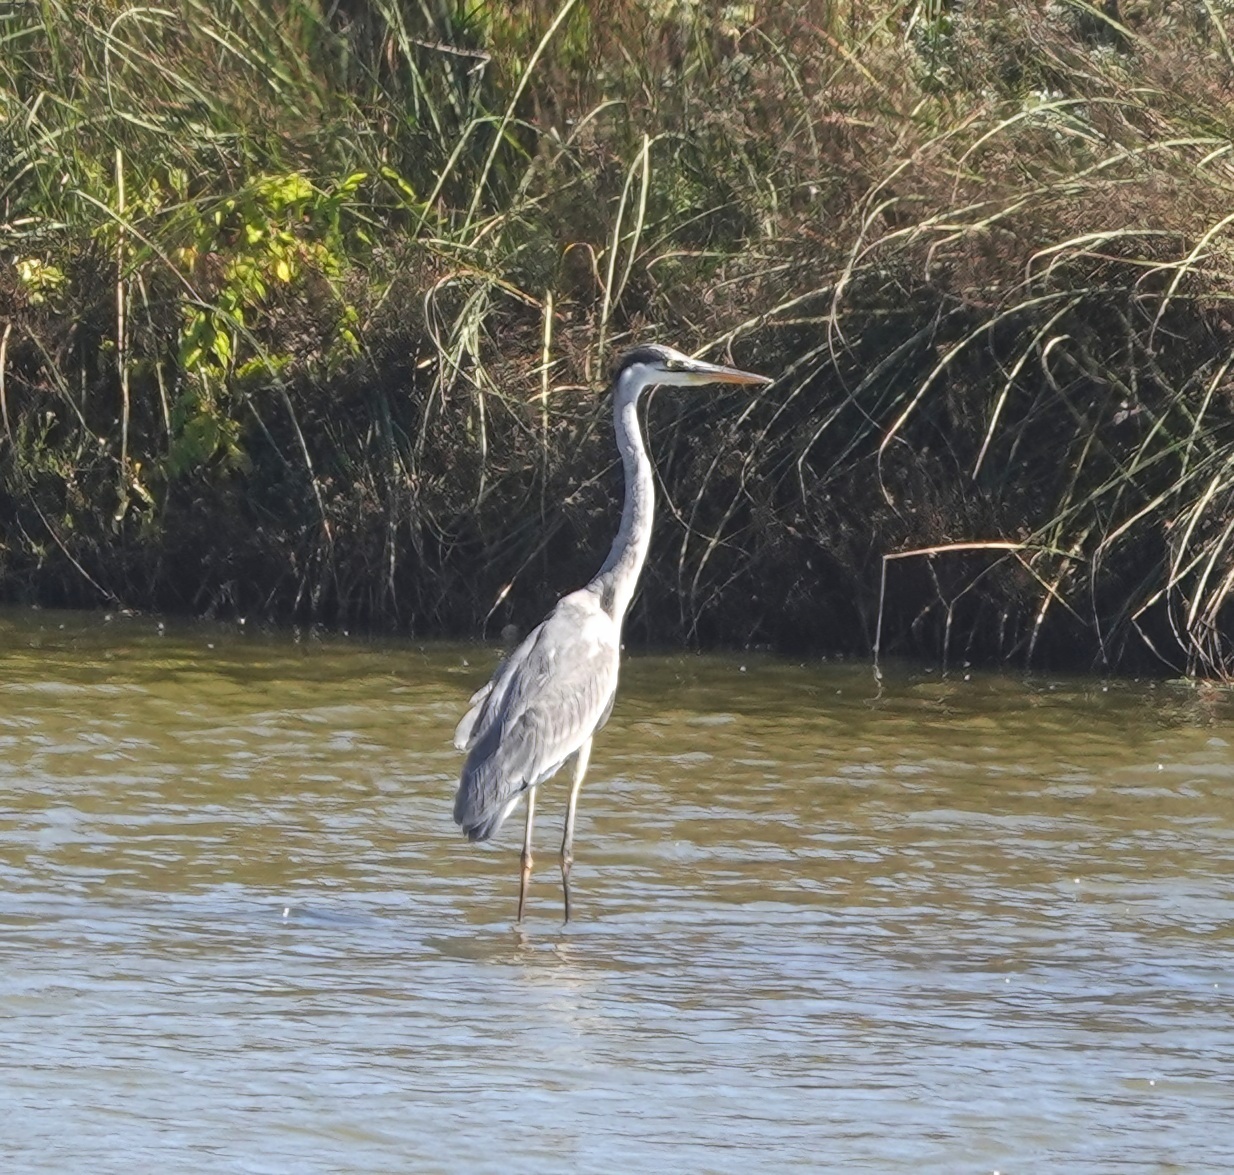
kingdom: Animalia
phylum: Chordata
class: Aves
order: Pelecaniformes
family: Ardeidae
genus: Ardea
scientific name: Ardea cocoi
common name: Cocoi heron
